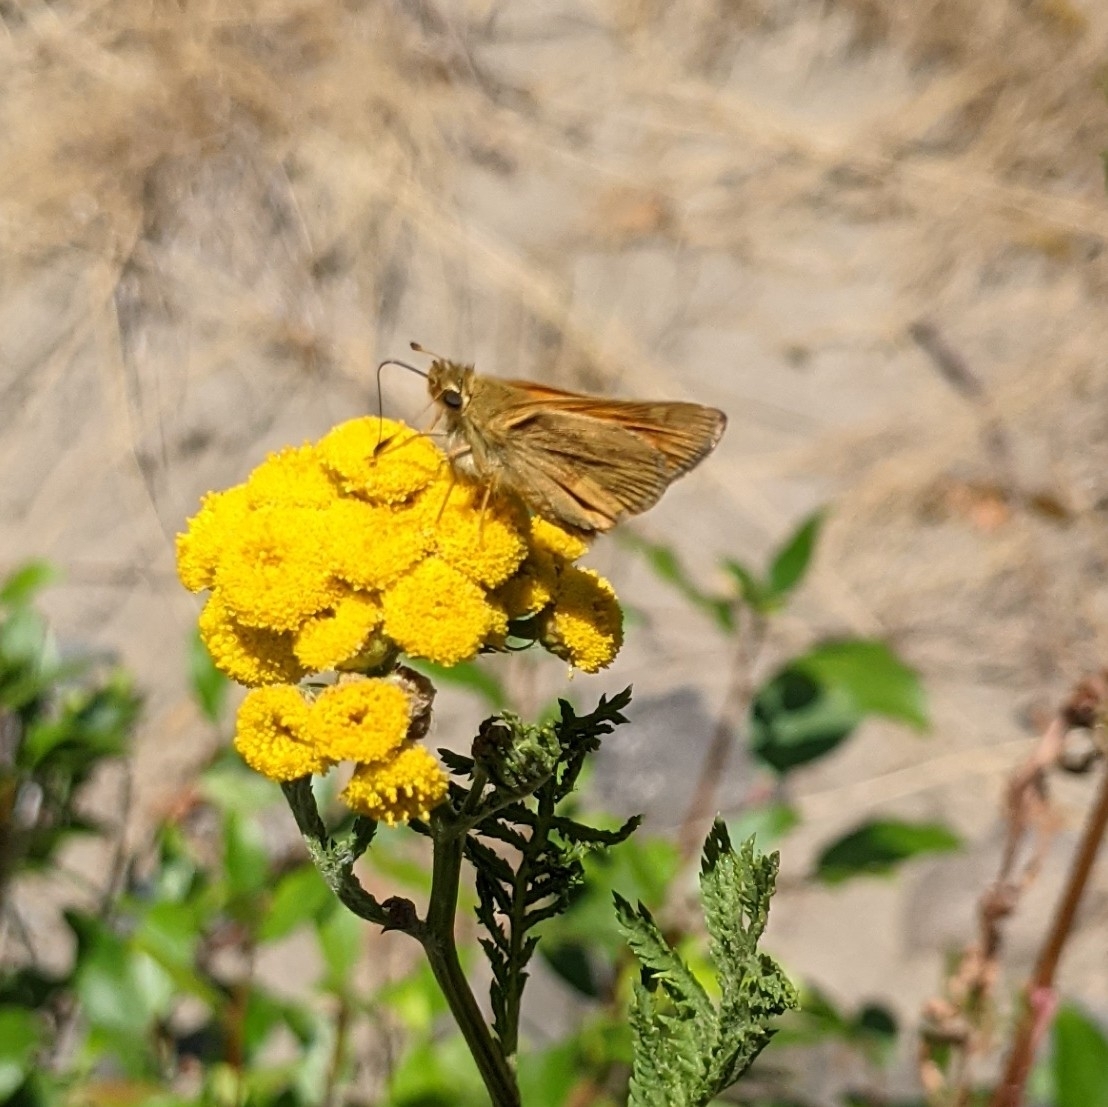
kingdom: Animalia
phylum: Arthropoda
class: Insecta
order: Lepidoptera
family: Hesperiidae
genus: Ochlodes
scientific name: Ochlodes sylvanoides
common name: Woodland skipper
